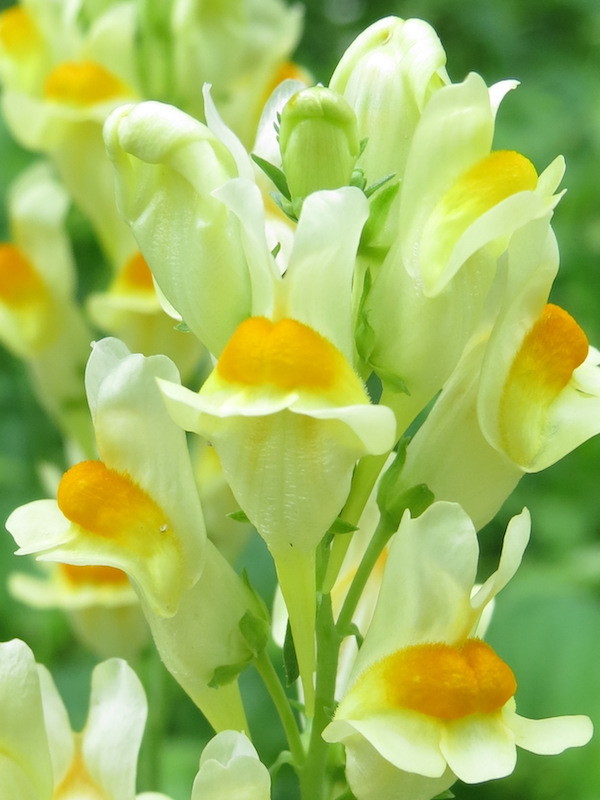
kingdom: Plantae
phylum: Tracheophyta
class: Magnoliopsida
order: Lamiales
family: Plantaginaceae
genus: Linaria
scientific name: Linaria vulgaris
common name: Butter and eggs
